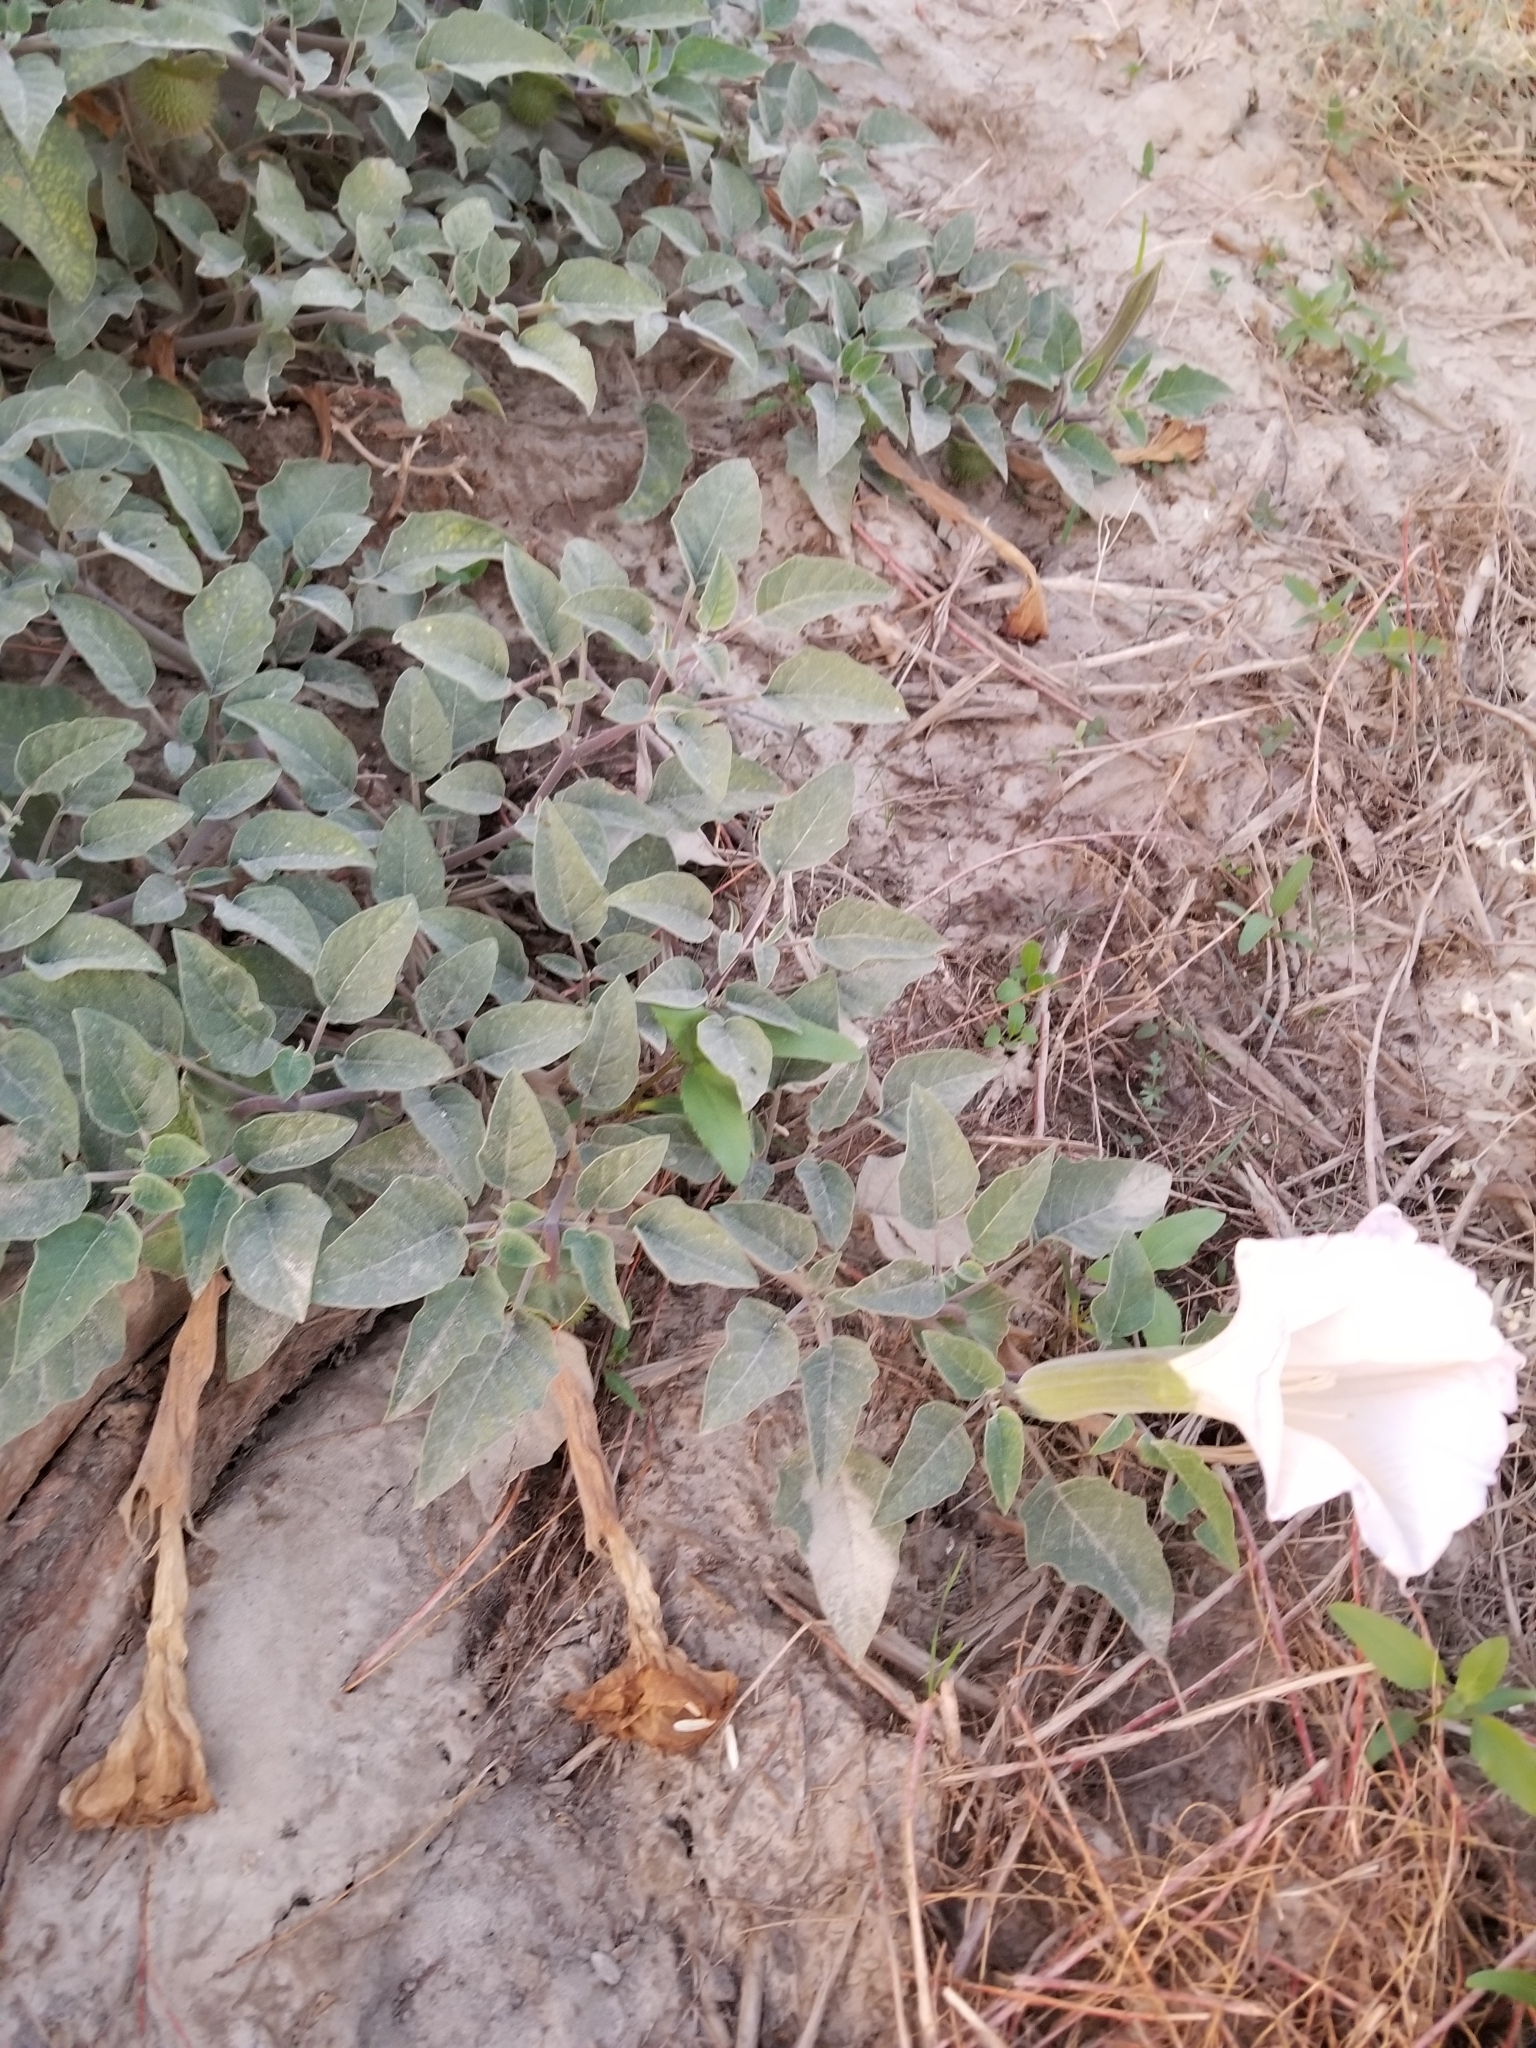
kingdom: Plantae
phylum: Tracheophyta
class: Magnoliopsida
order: Solanales
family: Solanaceae
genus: Datura
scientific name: Datura wrightii
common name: Sacred thorn-apple
